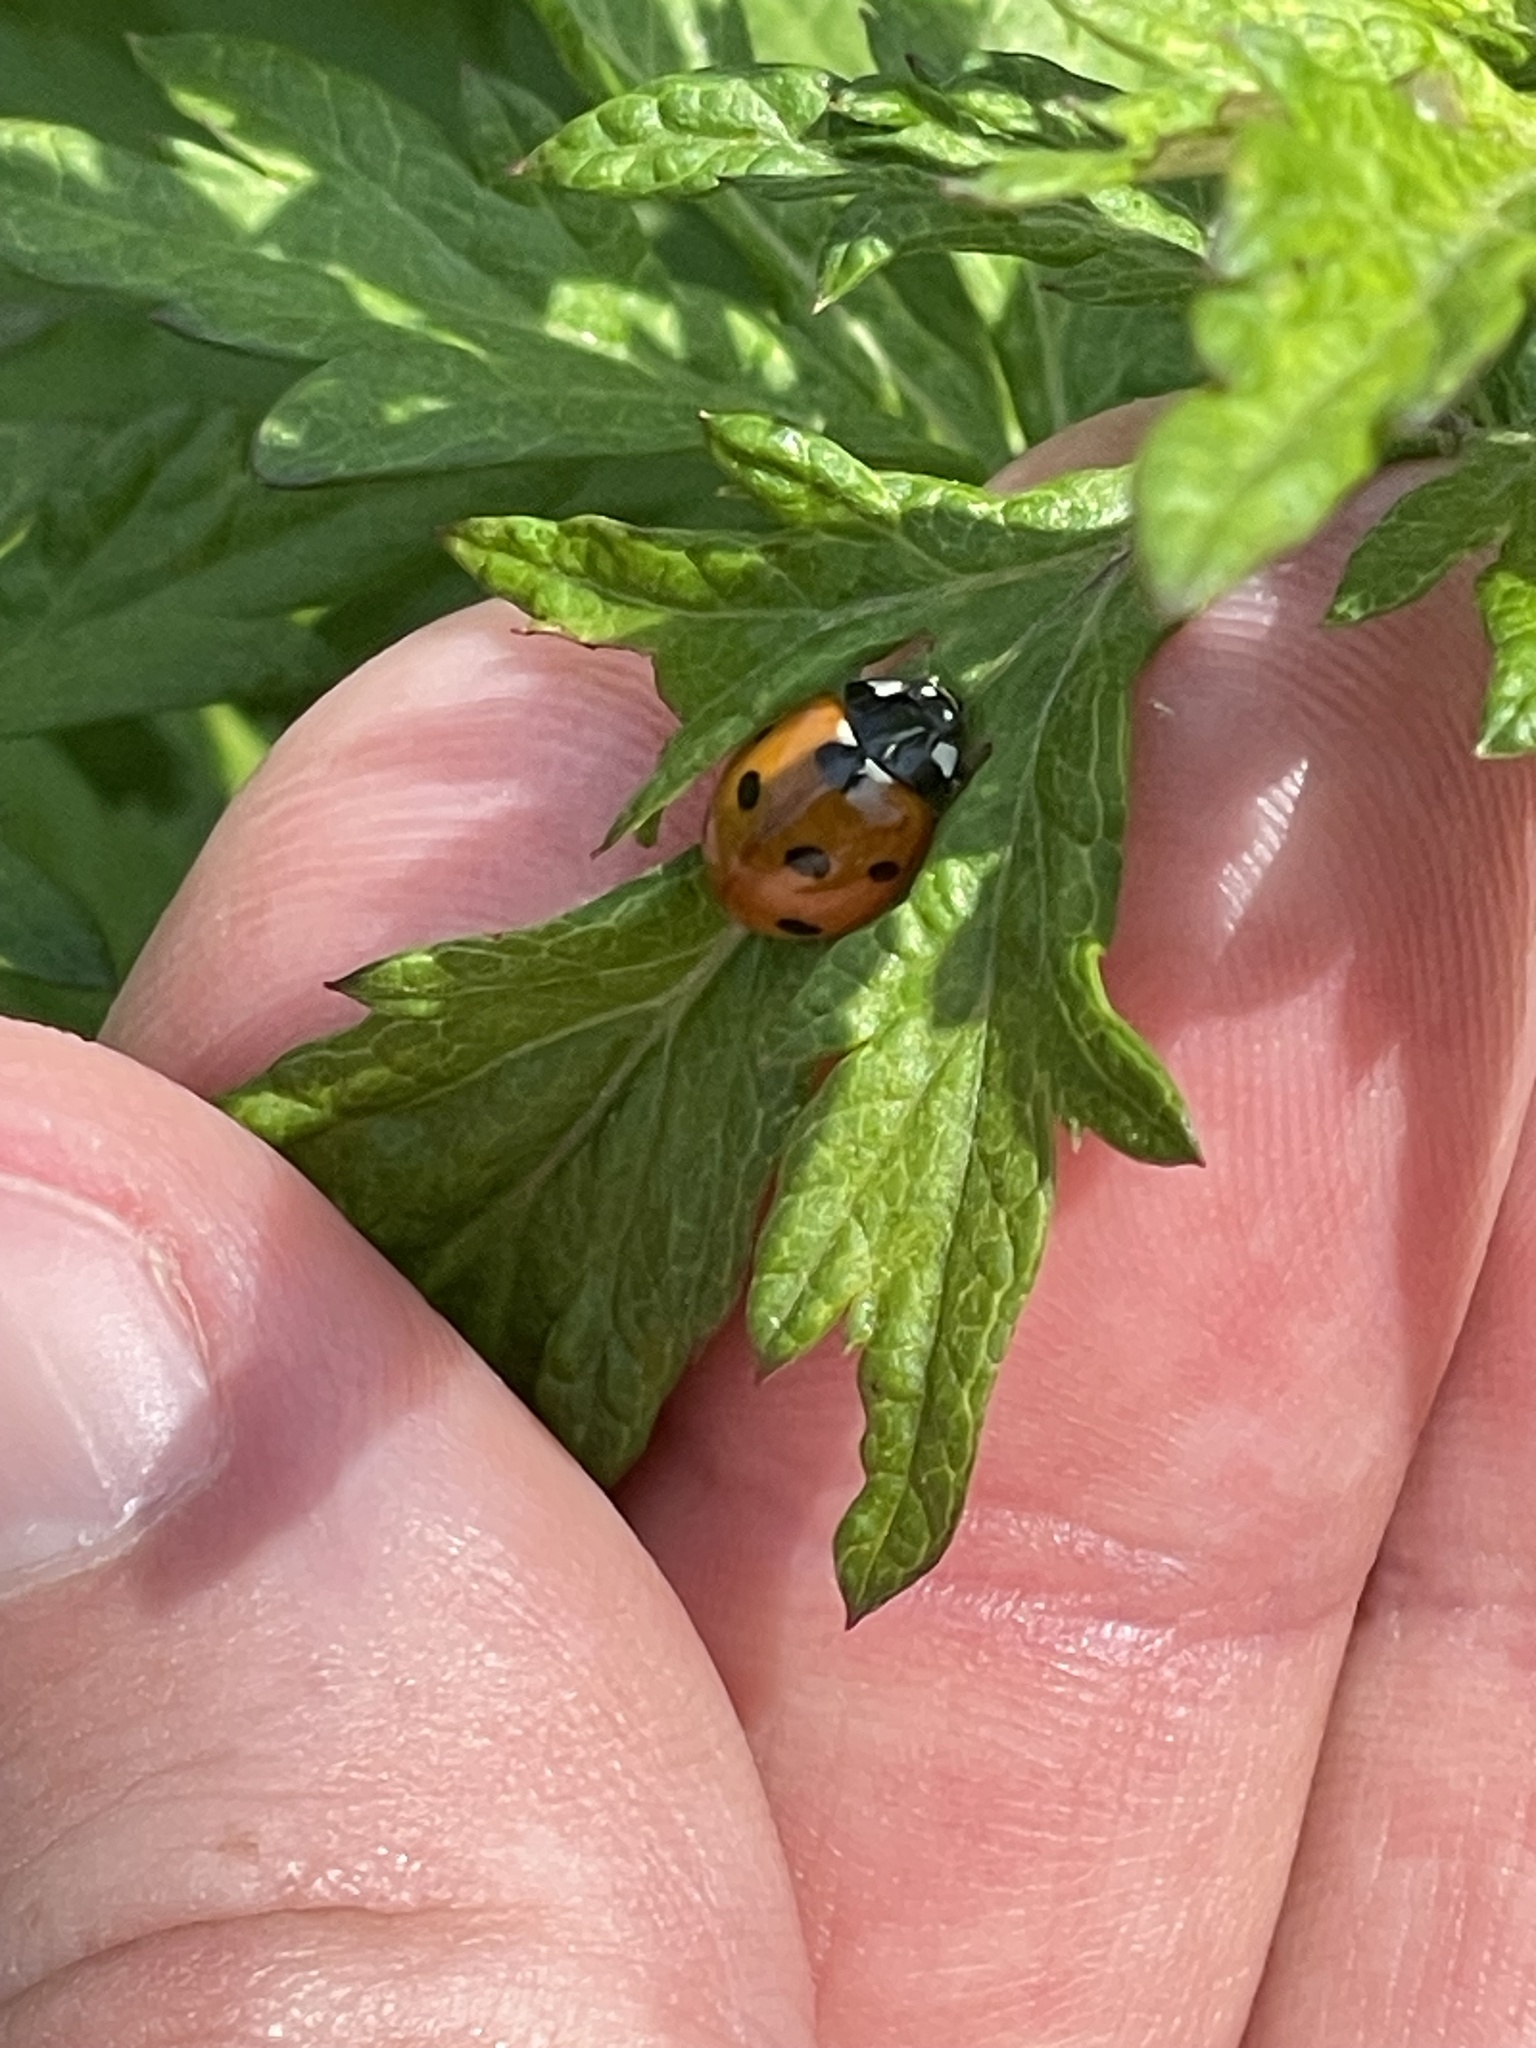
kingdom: Animalia
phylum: Arthropoda
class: Insecta
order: Coleoptera
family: Coccinellidae
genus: Coccinella
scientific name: Coccinella septempunctata
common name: Sevenspotted lady beetle
